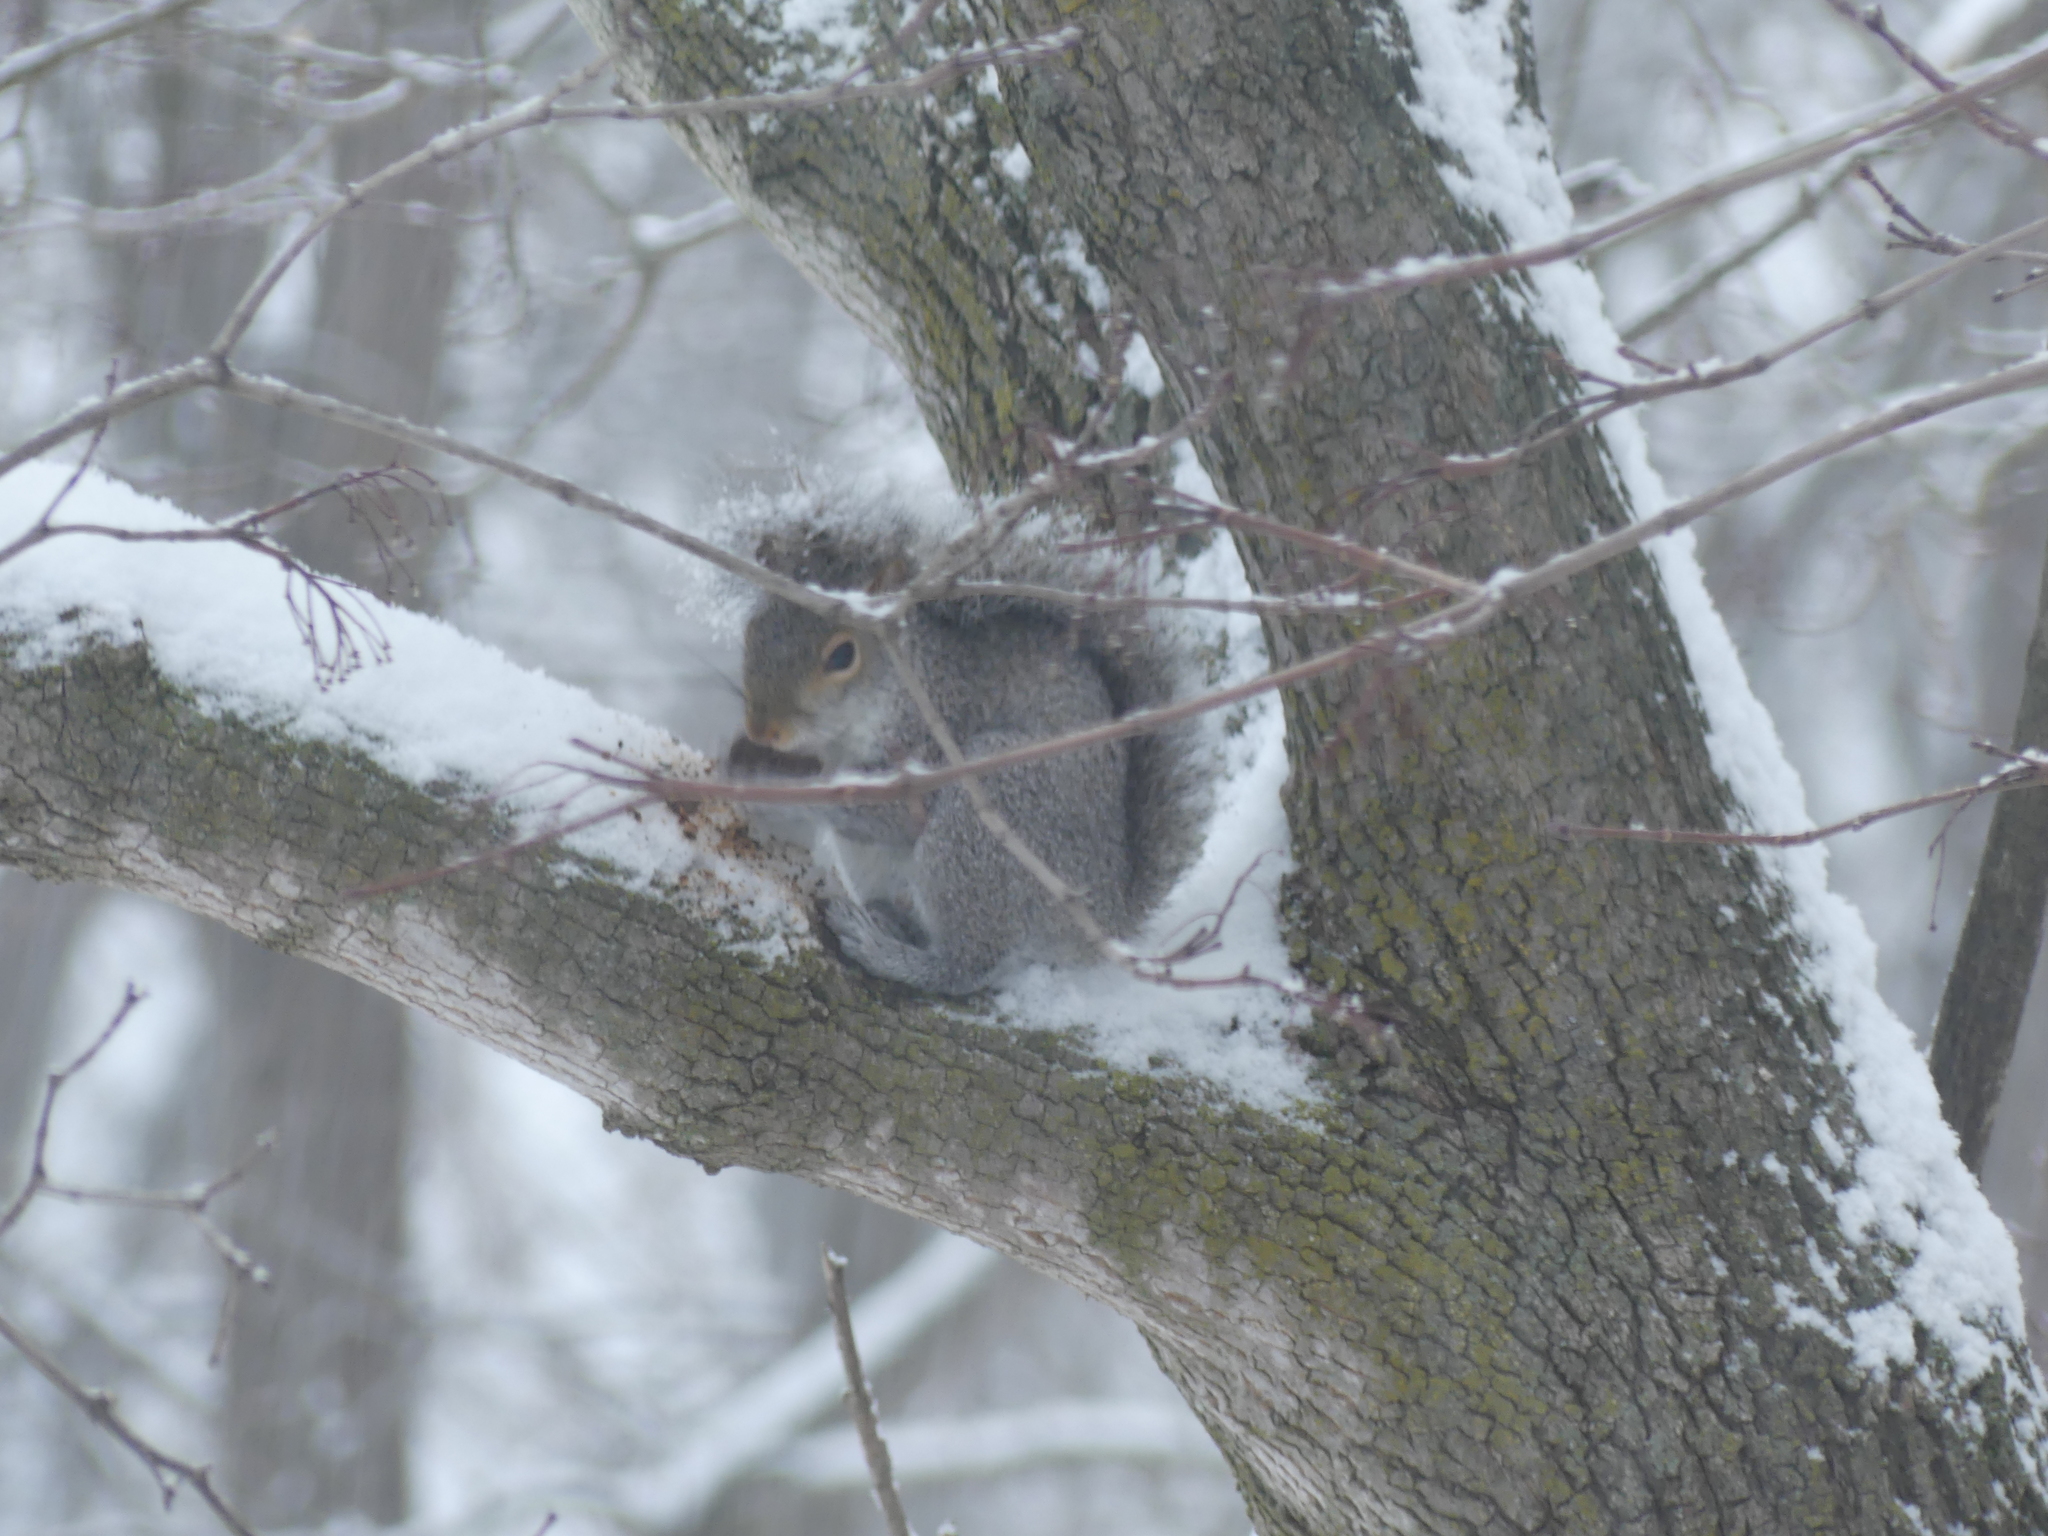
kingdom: Animalia
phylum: Chordata
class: Mammalia
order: Rodentia
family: Sciuridae
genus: Sciurus
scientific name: Sciurus carolinensis
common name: Eastern gray squirrel
